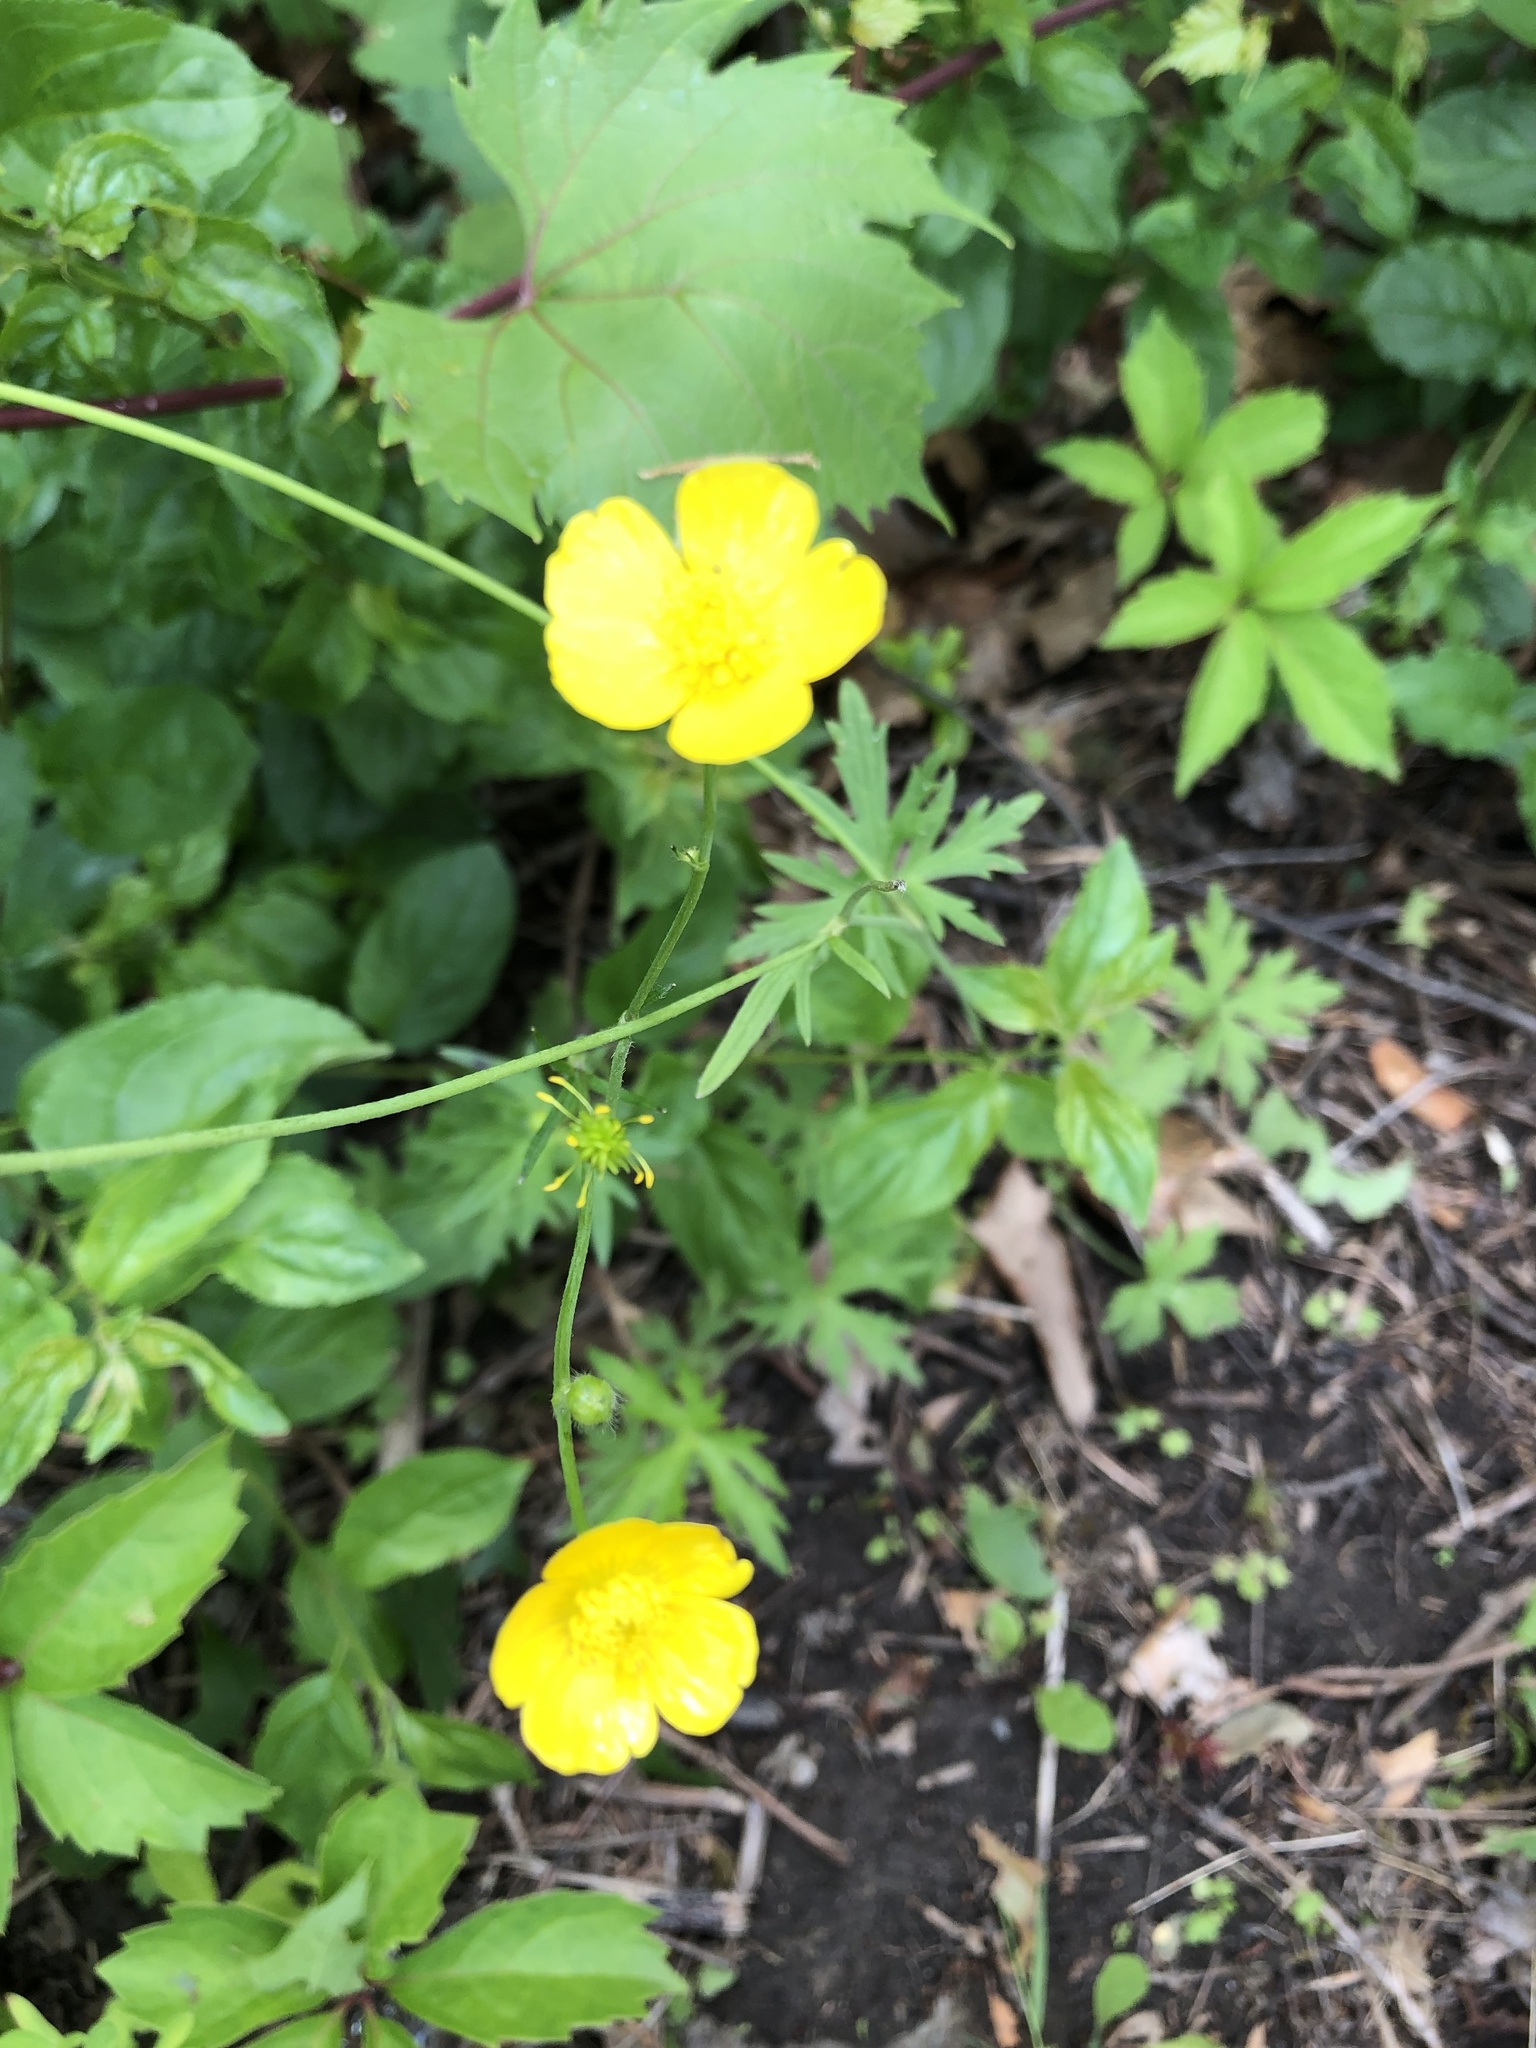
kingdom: Plantae
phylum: Tracheophyta
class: Magnoliopsida
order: Ranunculales
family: Ranunculaceae
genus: Ranunculus
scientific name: Ranunculus acris
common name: Meadow buttercup
